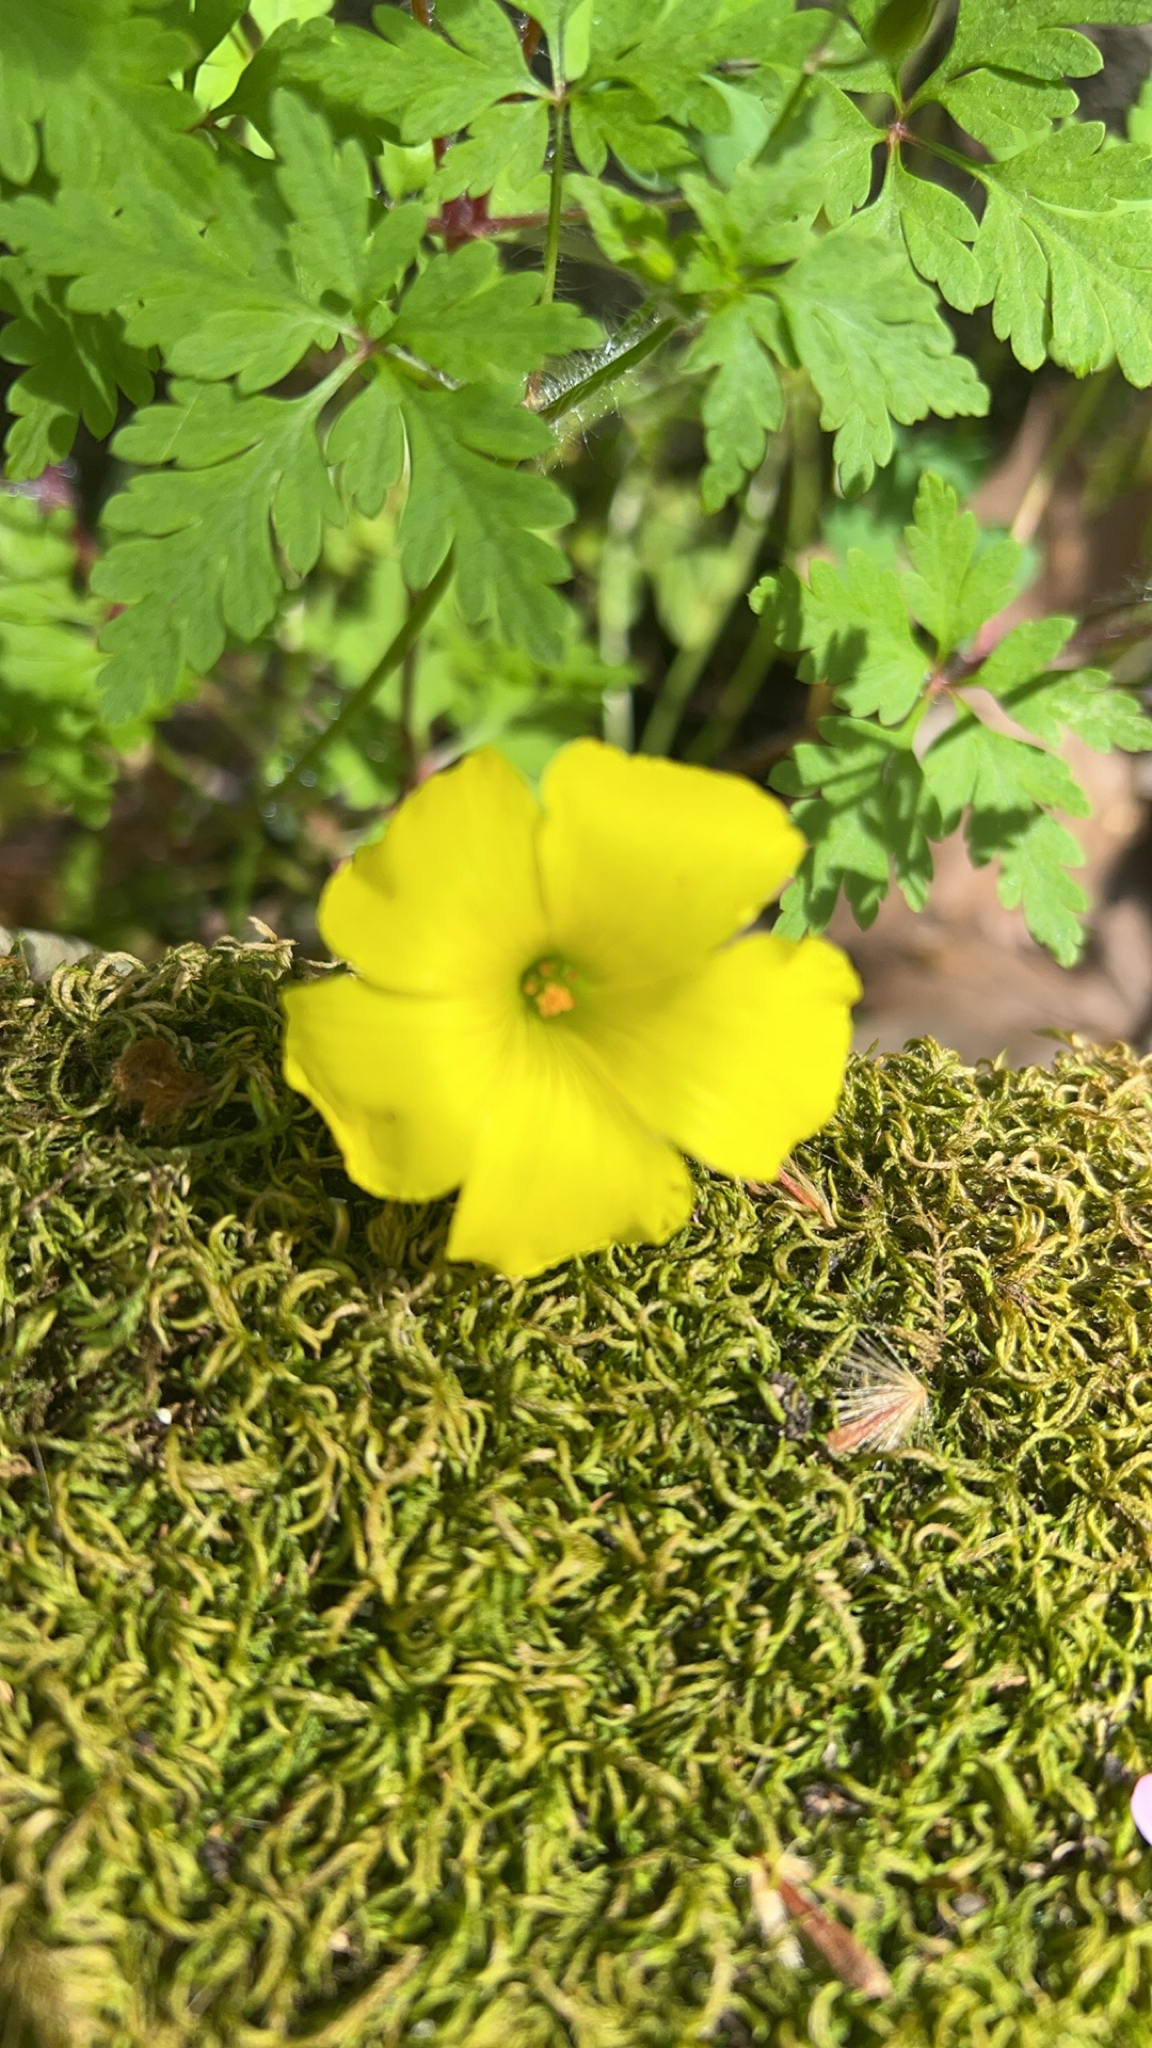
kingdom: Plantae
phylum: Tracheophyta
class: Magnoliopsida
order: Oxalidales
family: Oxalidaceae
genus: Oxalis
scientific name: Oxalis pes-caprae
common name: Bermuda-buttercup
